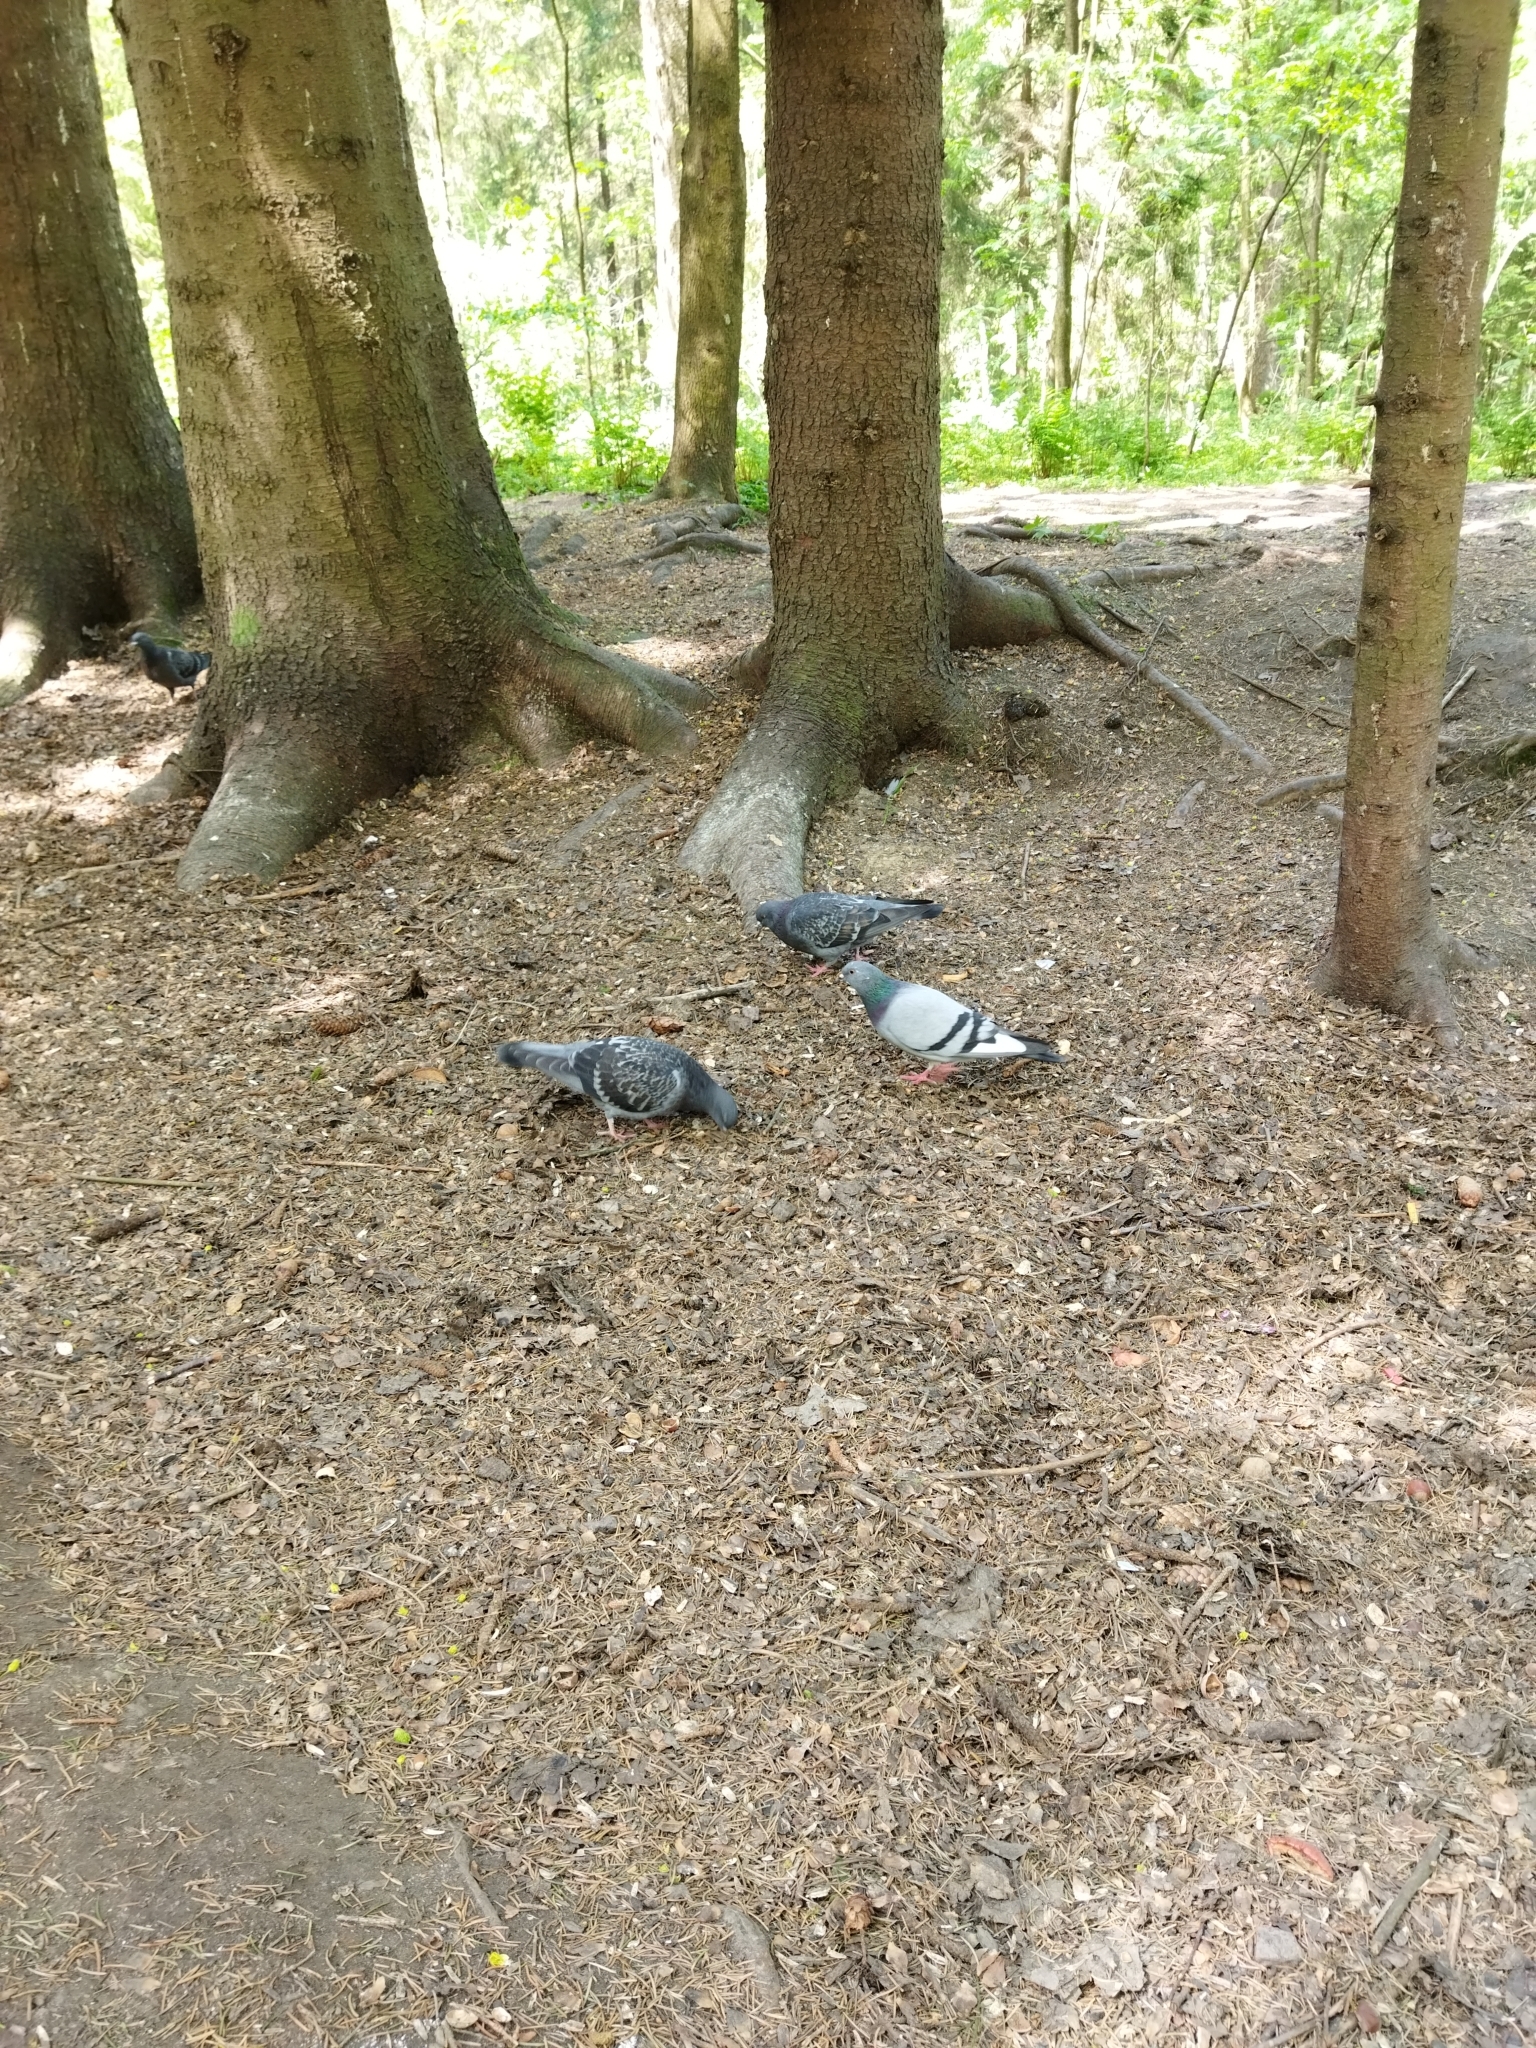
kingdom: Animalia
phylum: Chordata
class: Aves
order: Columbiformes
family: Columbidae
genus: Columba
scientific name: Columba livia
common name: Rock pigeon
